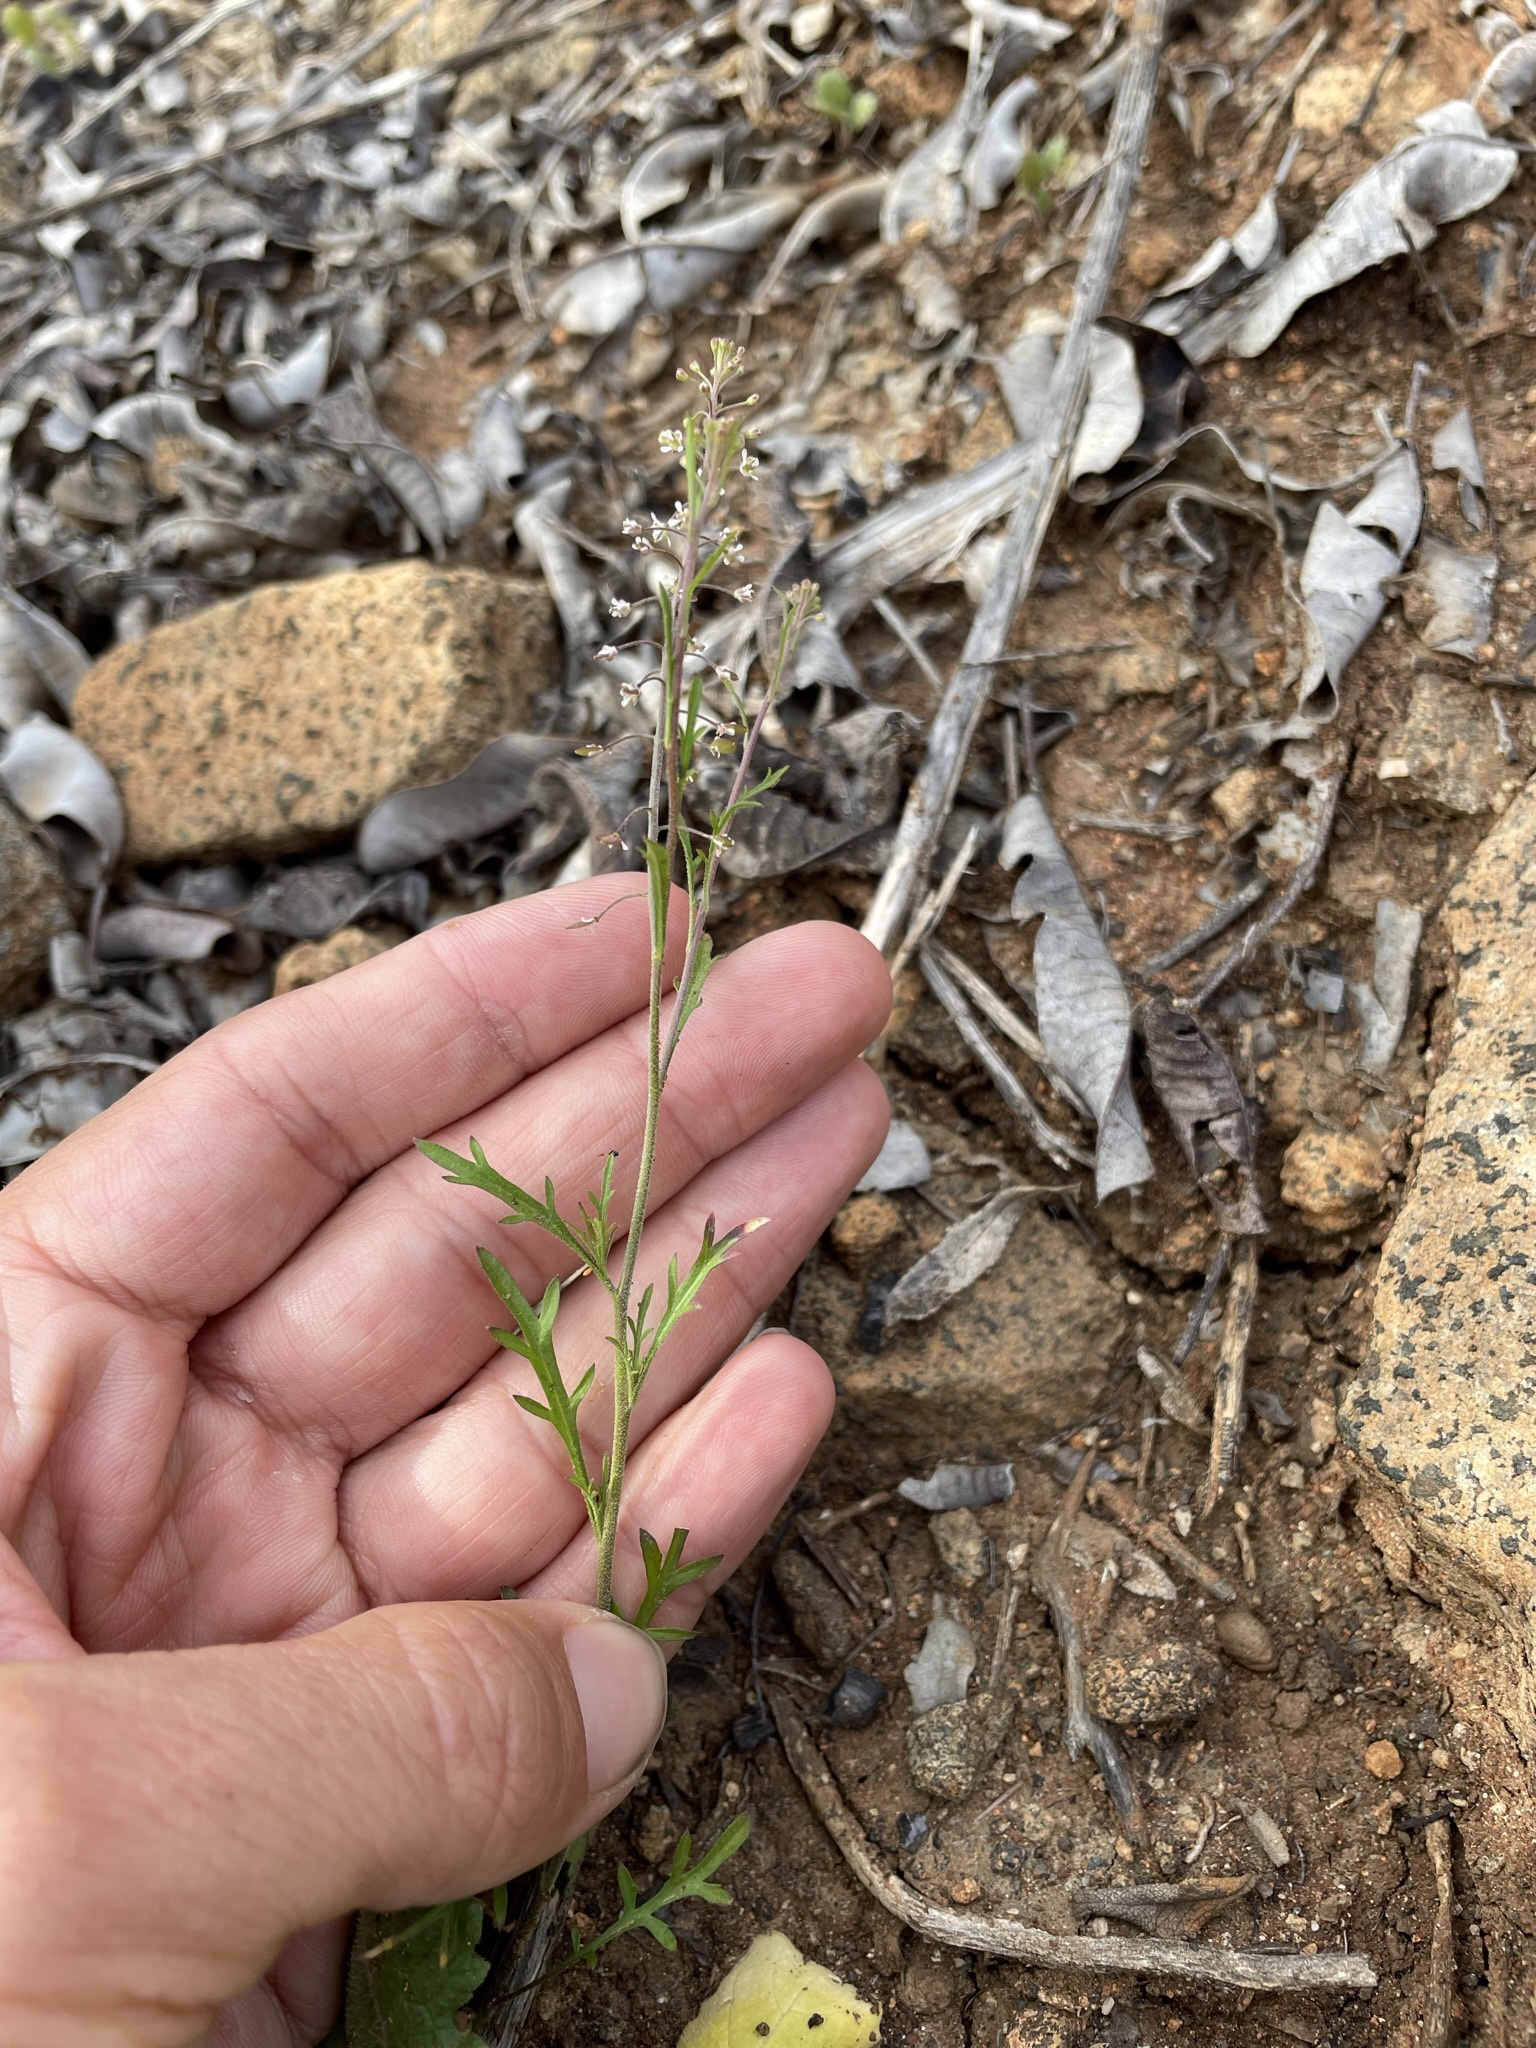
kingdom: Plantae
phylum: Tracheophyta
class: Magnoliopsida
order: Brassicales
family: Brassicaceae
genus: Lepidium
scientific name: Lepidium virginicum
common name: Least pepperwort
